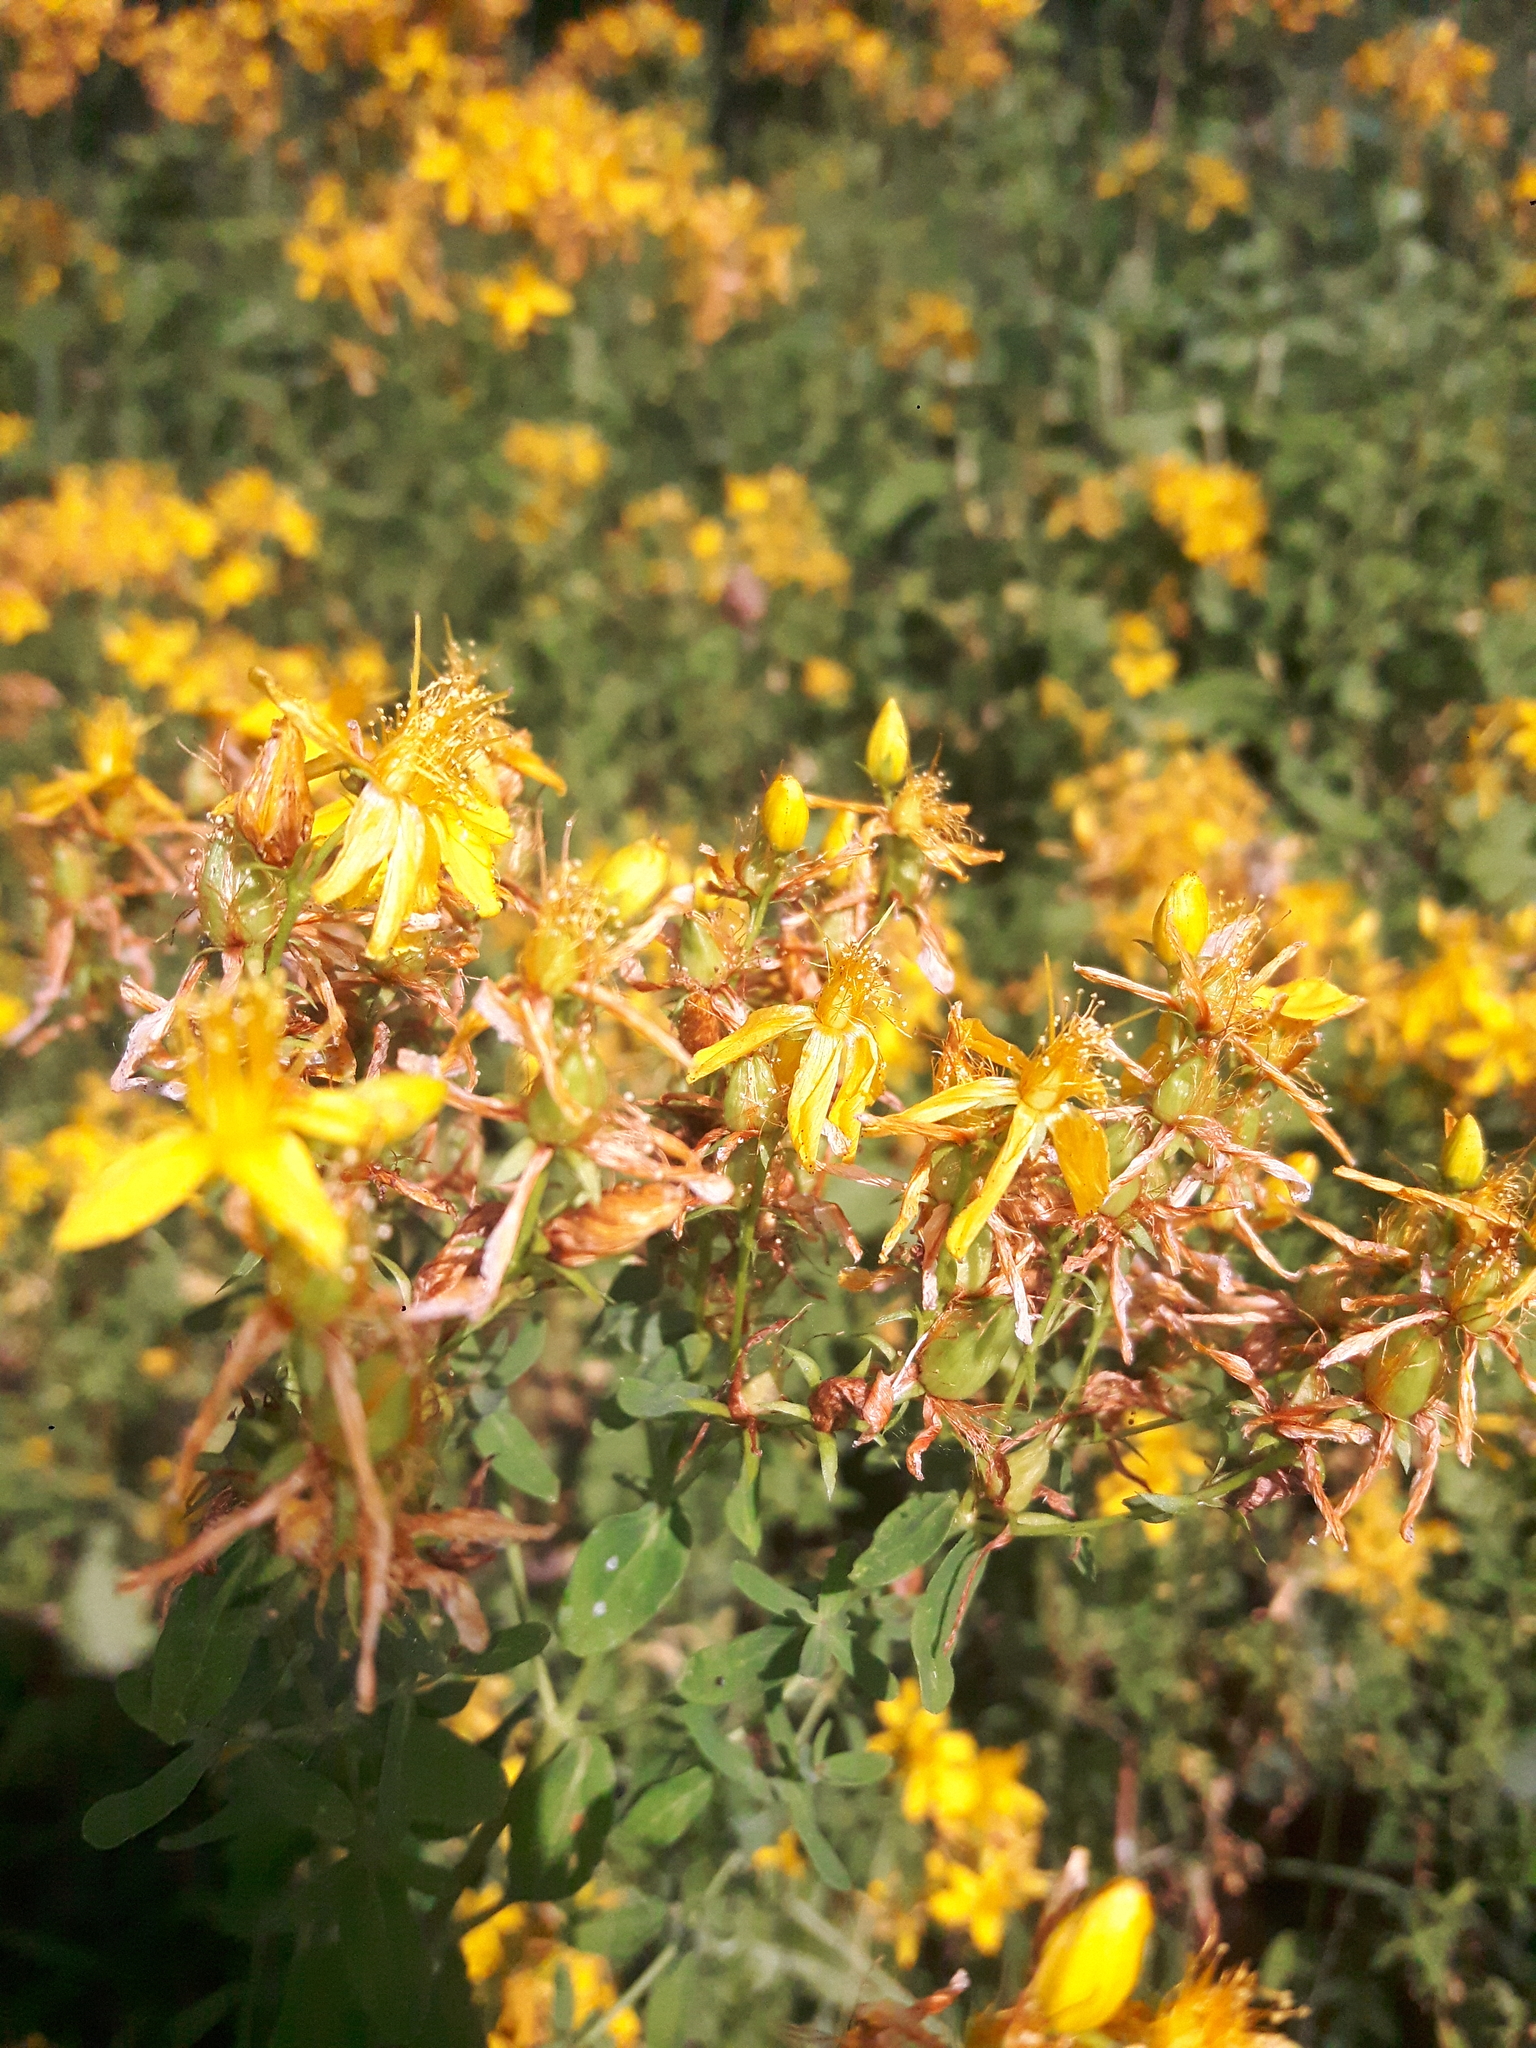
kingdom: Plantae
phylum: Tracheophyta
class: Magnoliopsida
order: Malpighiales
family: Hypericaceae
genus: Hypericum
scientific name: Hypericum perforatum
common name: Common st. johnswort
